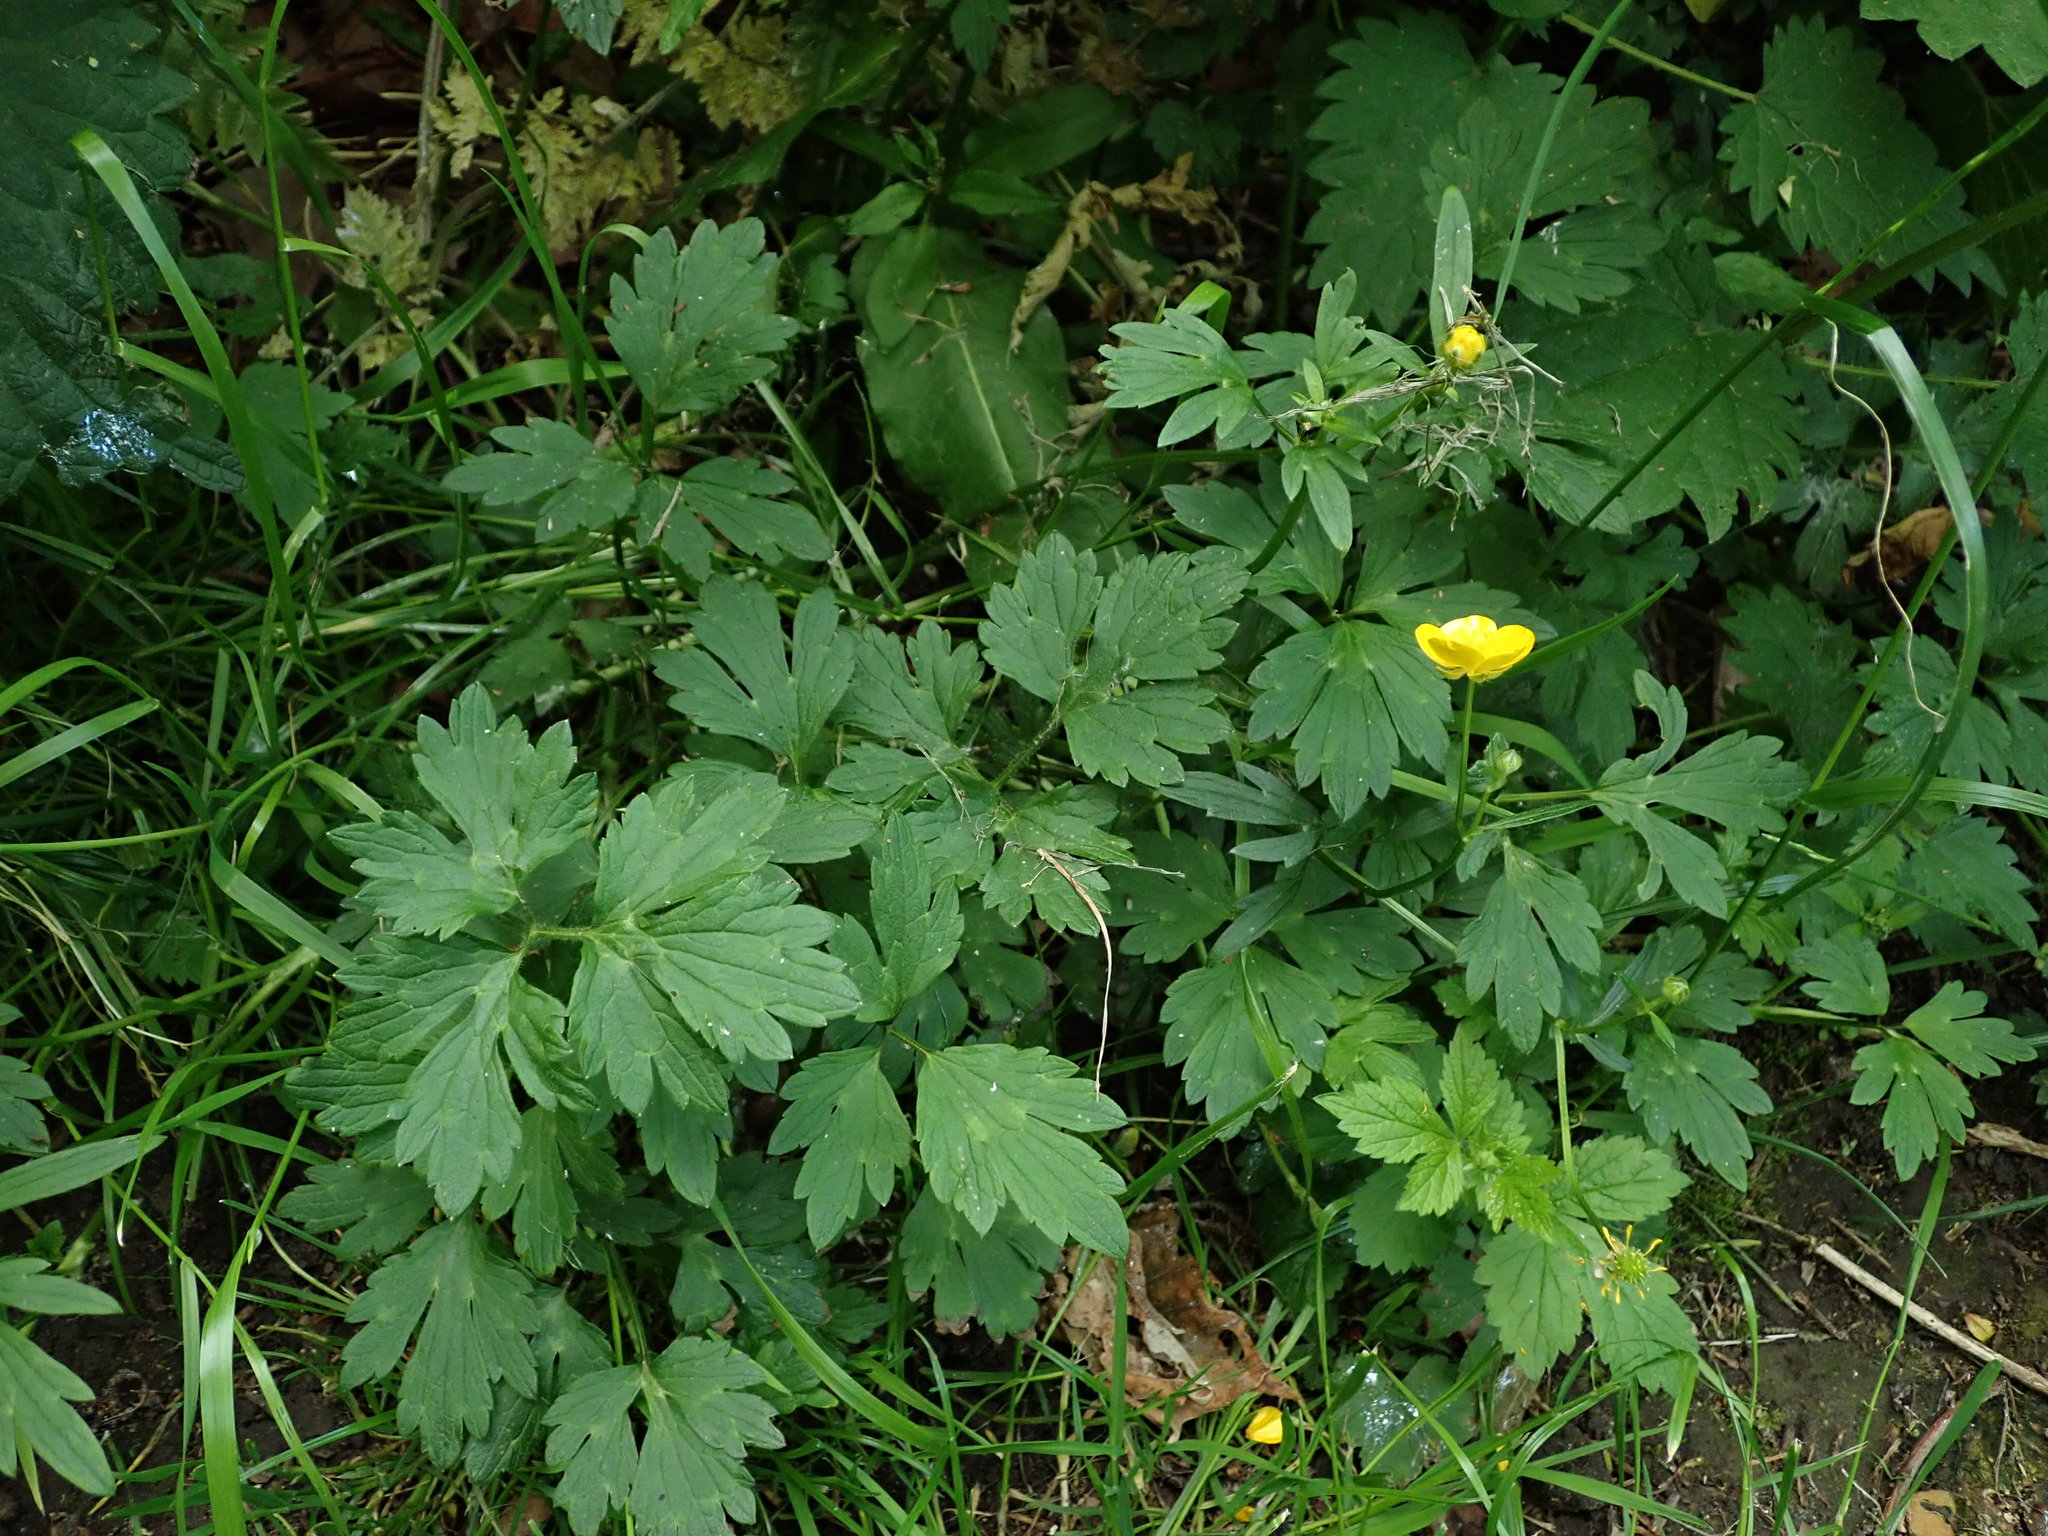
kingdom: Plantae
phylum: Tracheophyta
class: Magnoliopsida
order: Ranunculales
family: Ranunculaceae
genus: Ranunculus
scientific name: Ranunculus repens
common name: Creeping buttercup
